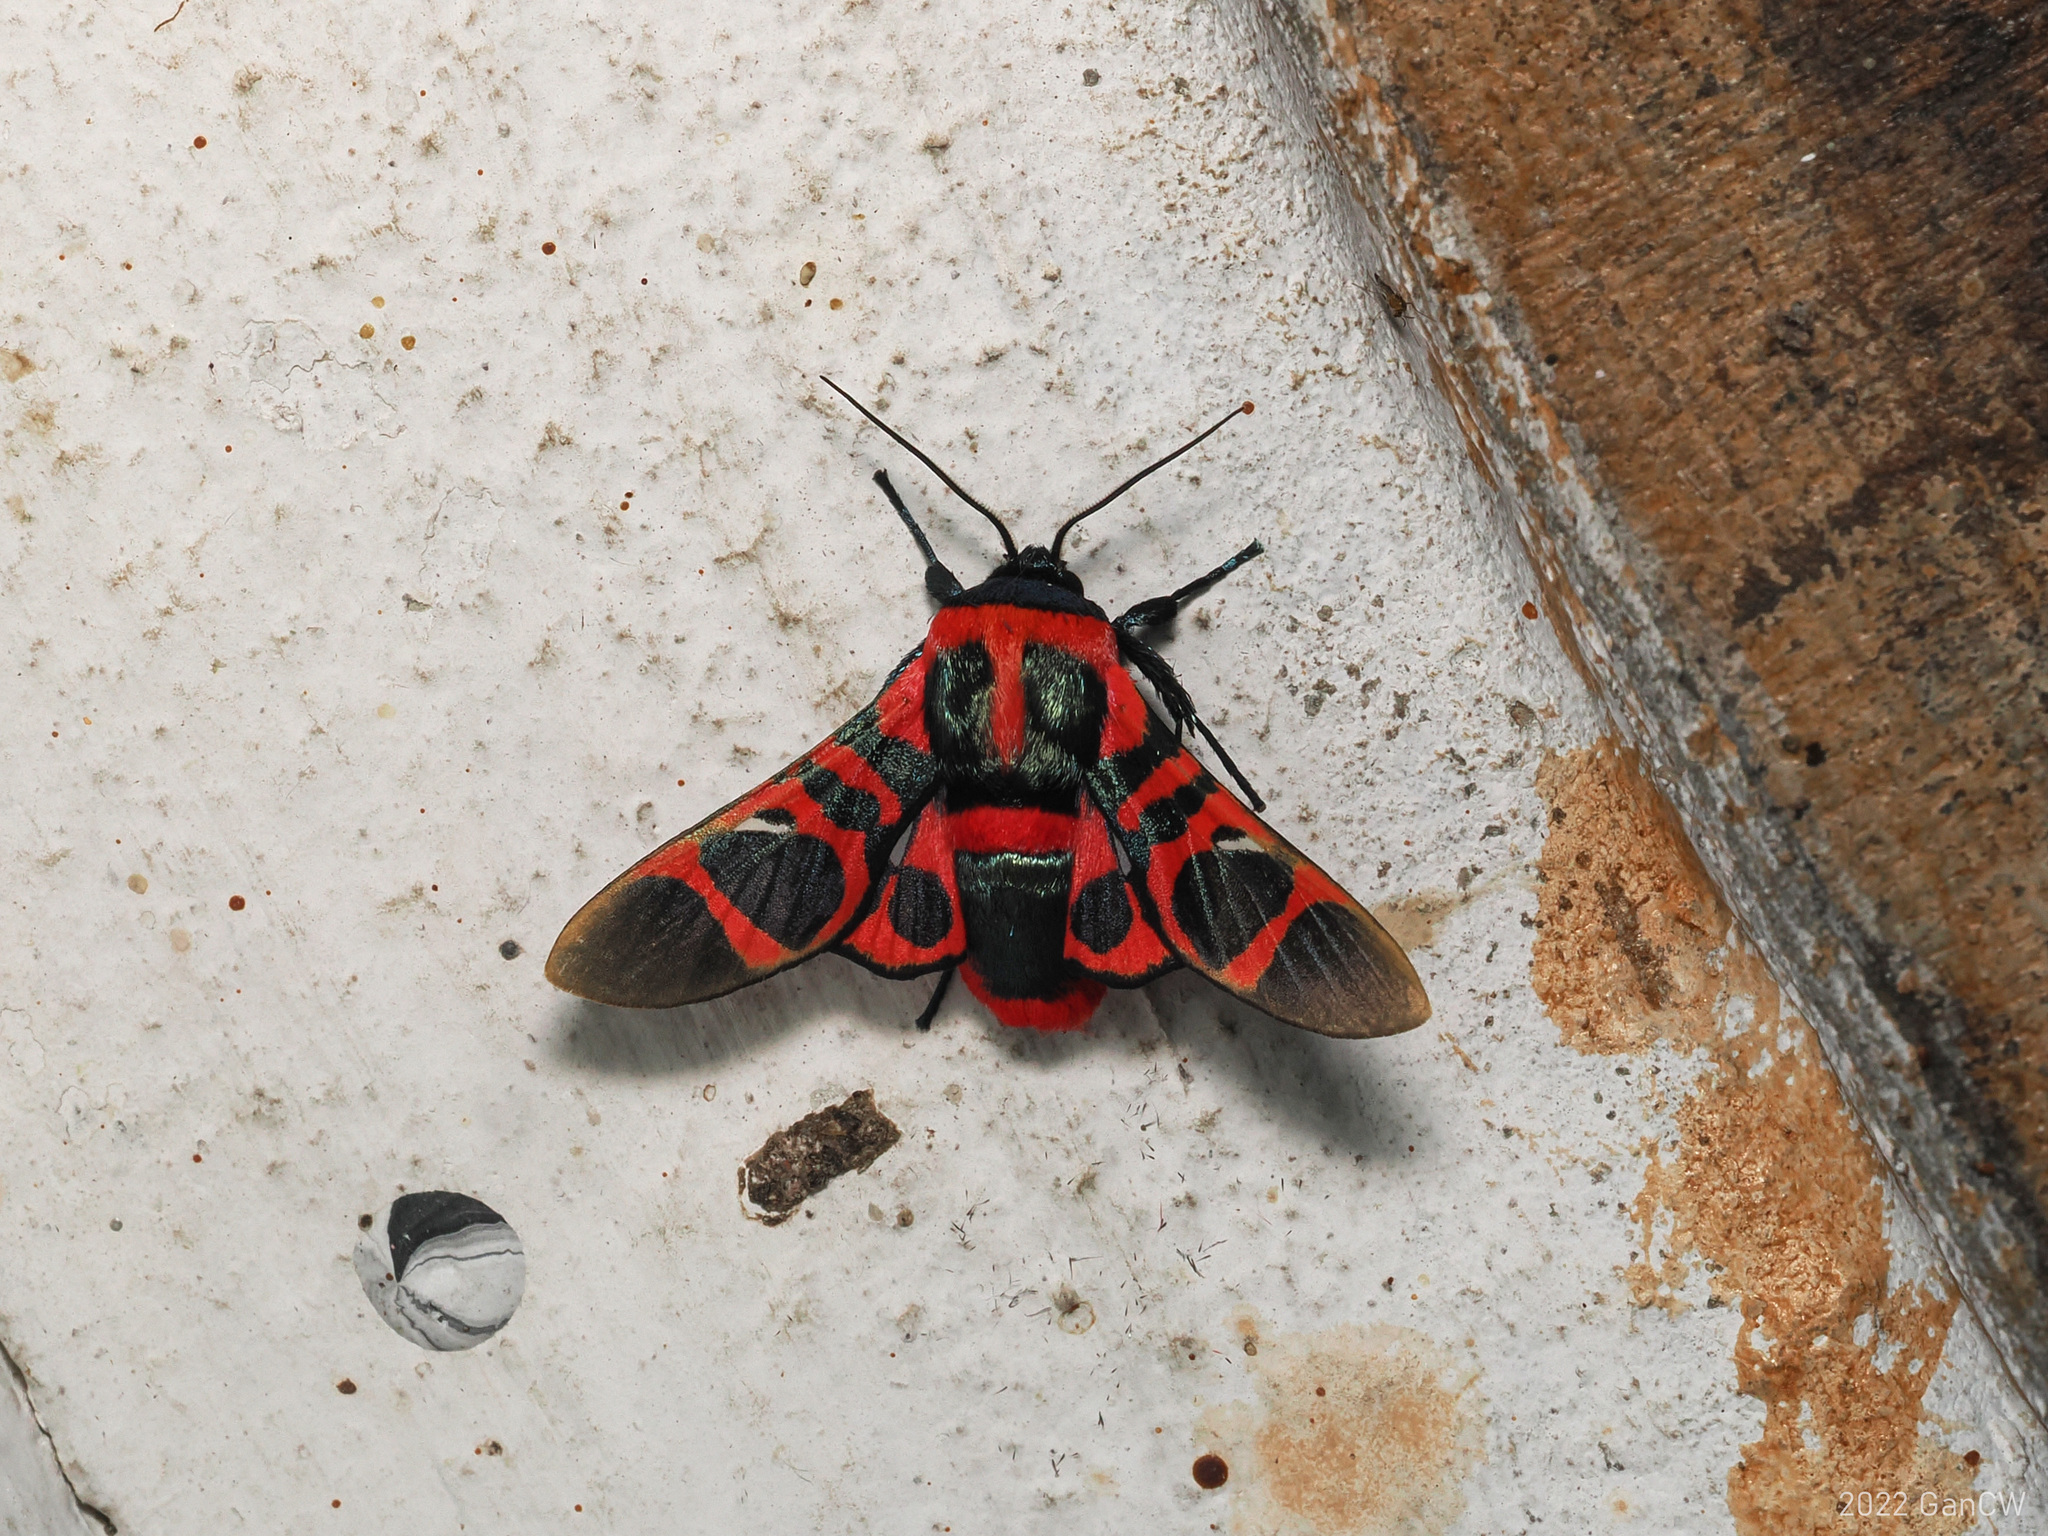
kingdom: Animalia
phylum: Arthropoda
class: Insecta
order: Lepidoptera
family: Thyrididae
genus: Glanycus
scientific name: Glanycus
